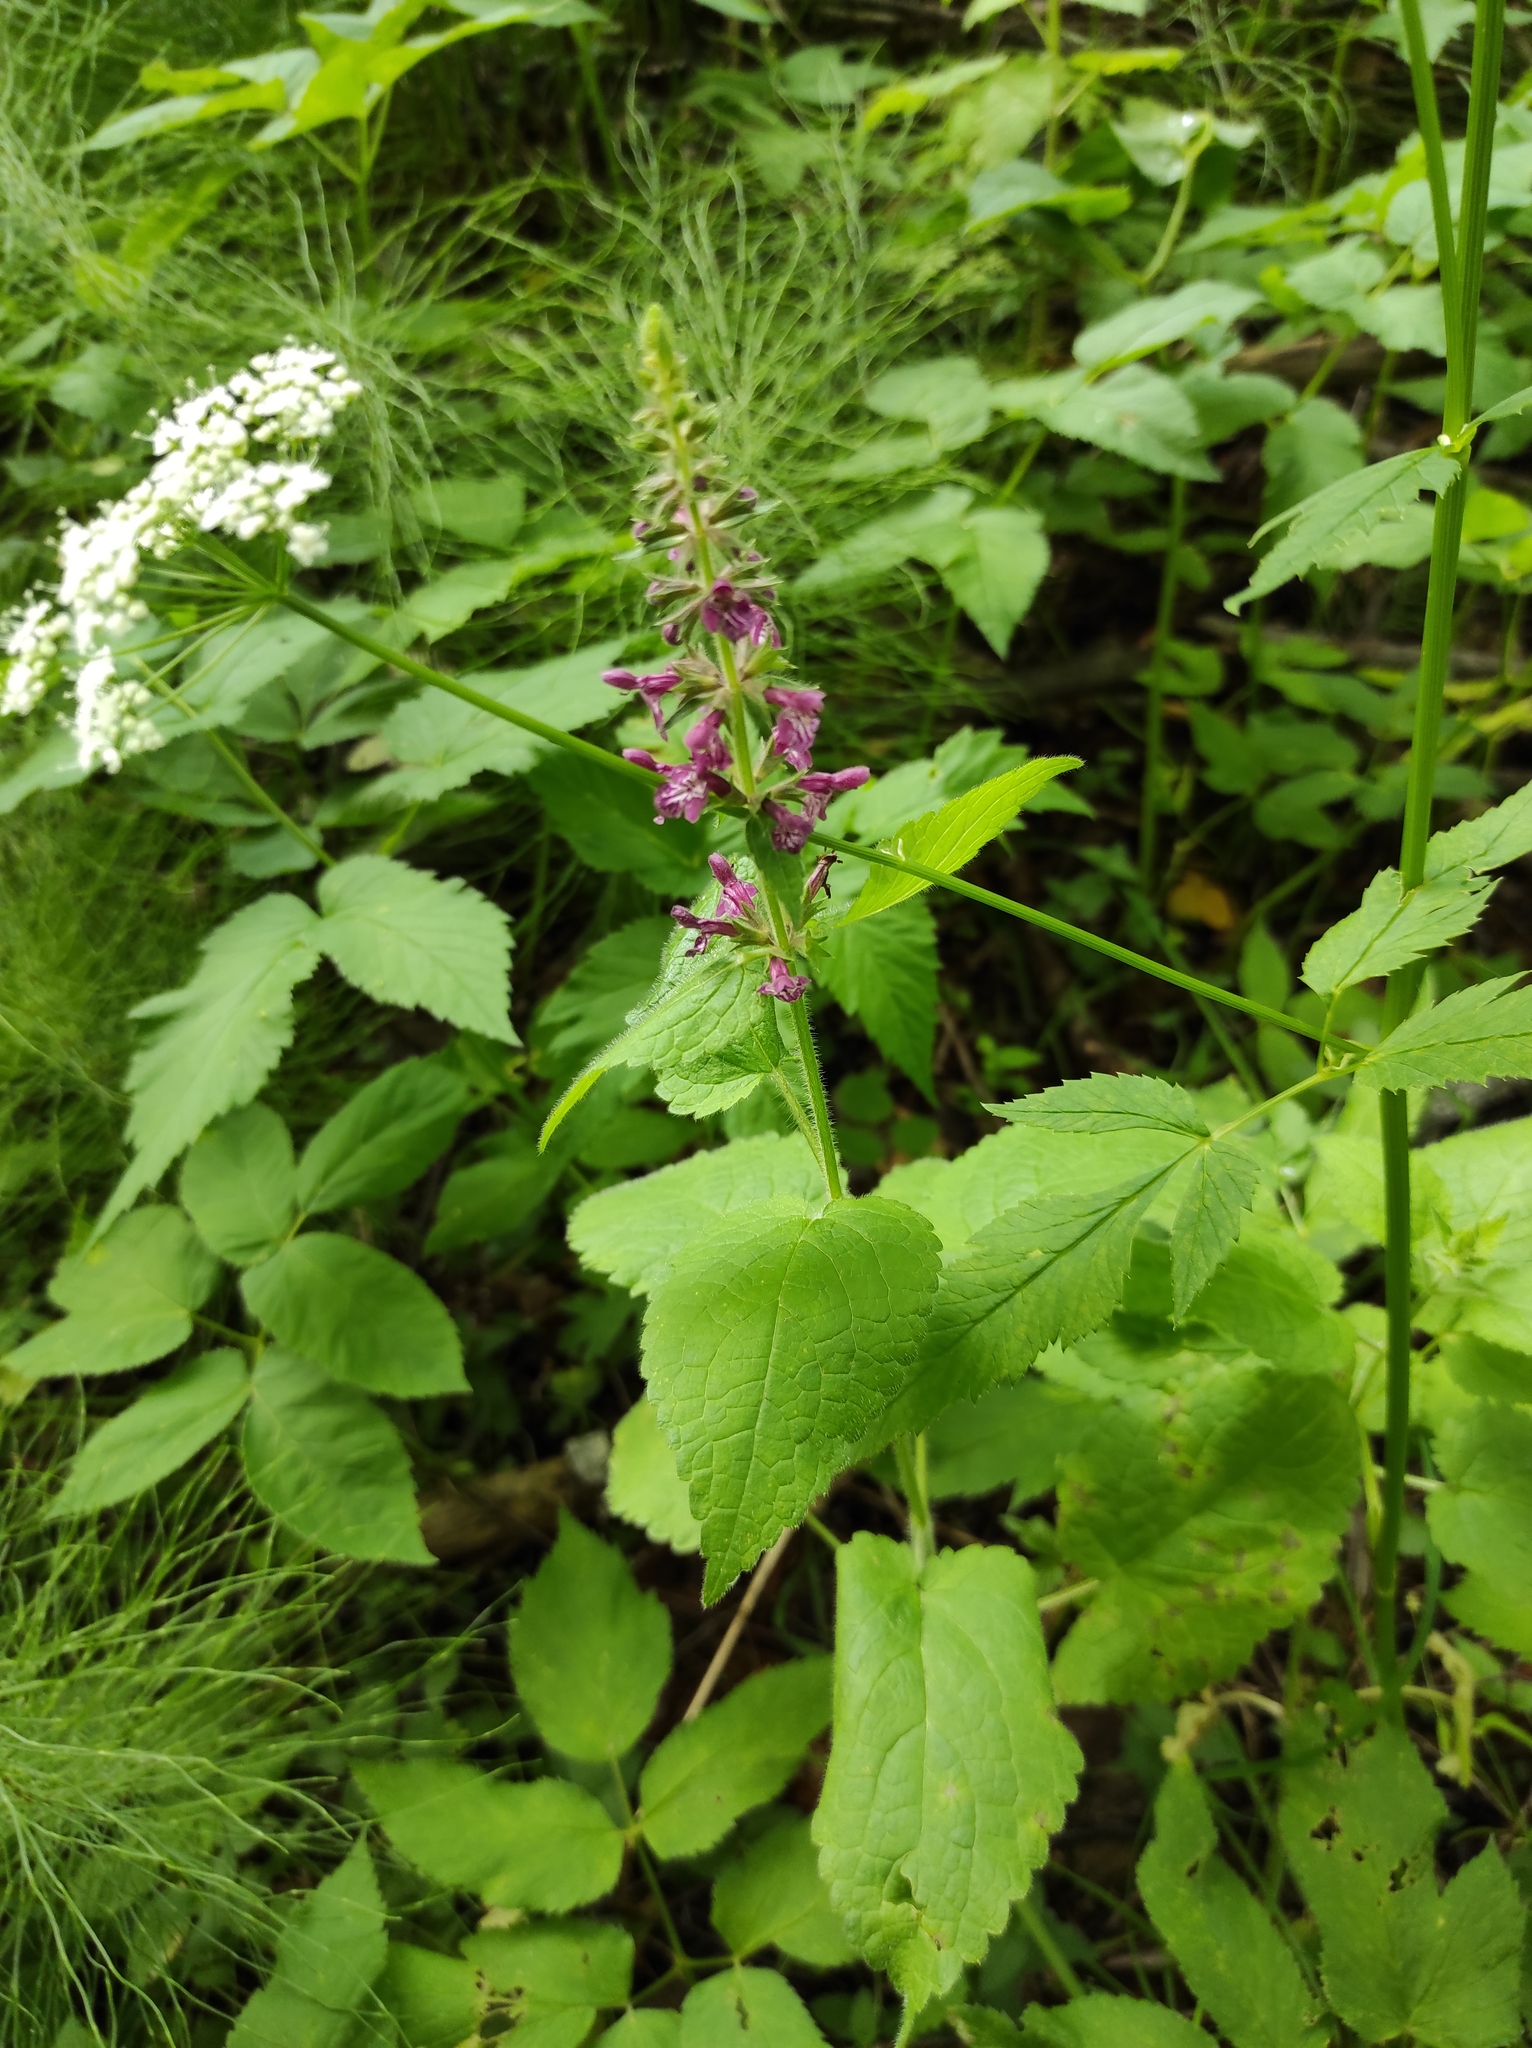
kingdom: Plantae
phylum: Tracheophyta
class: Magnoliopsida
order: Lamiales
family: Lamiaceae
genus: Stachys
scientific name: Stachys sylvatica
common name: Hedge woundwort
